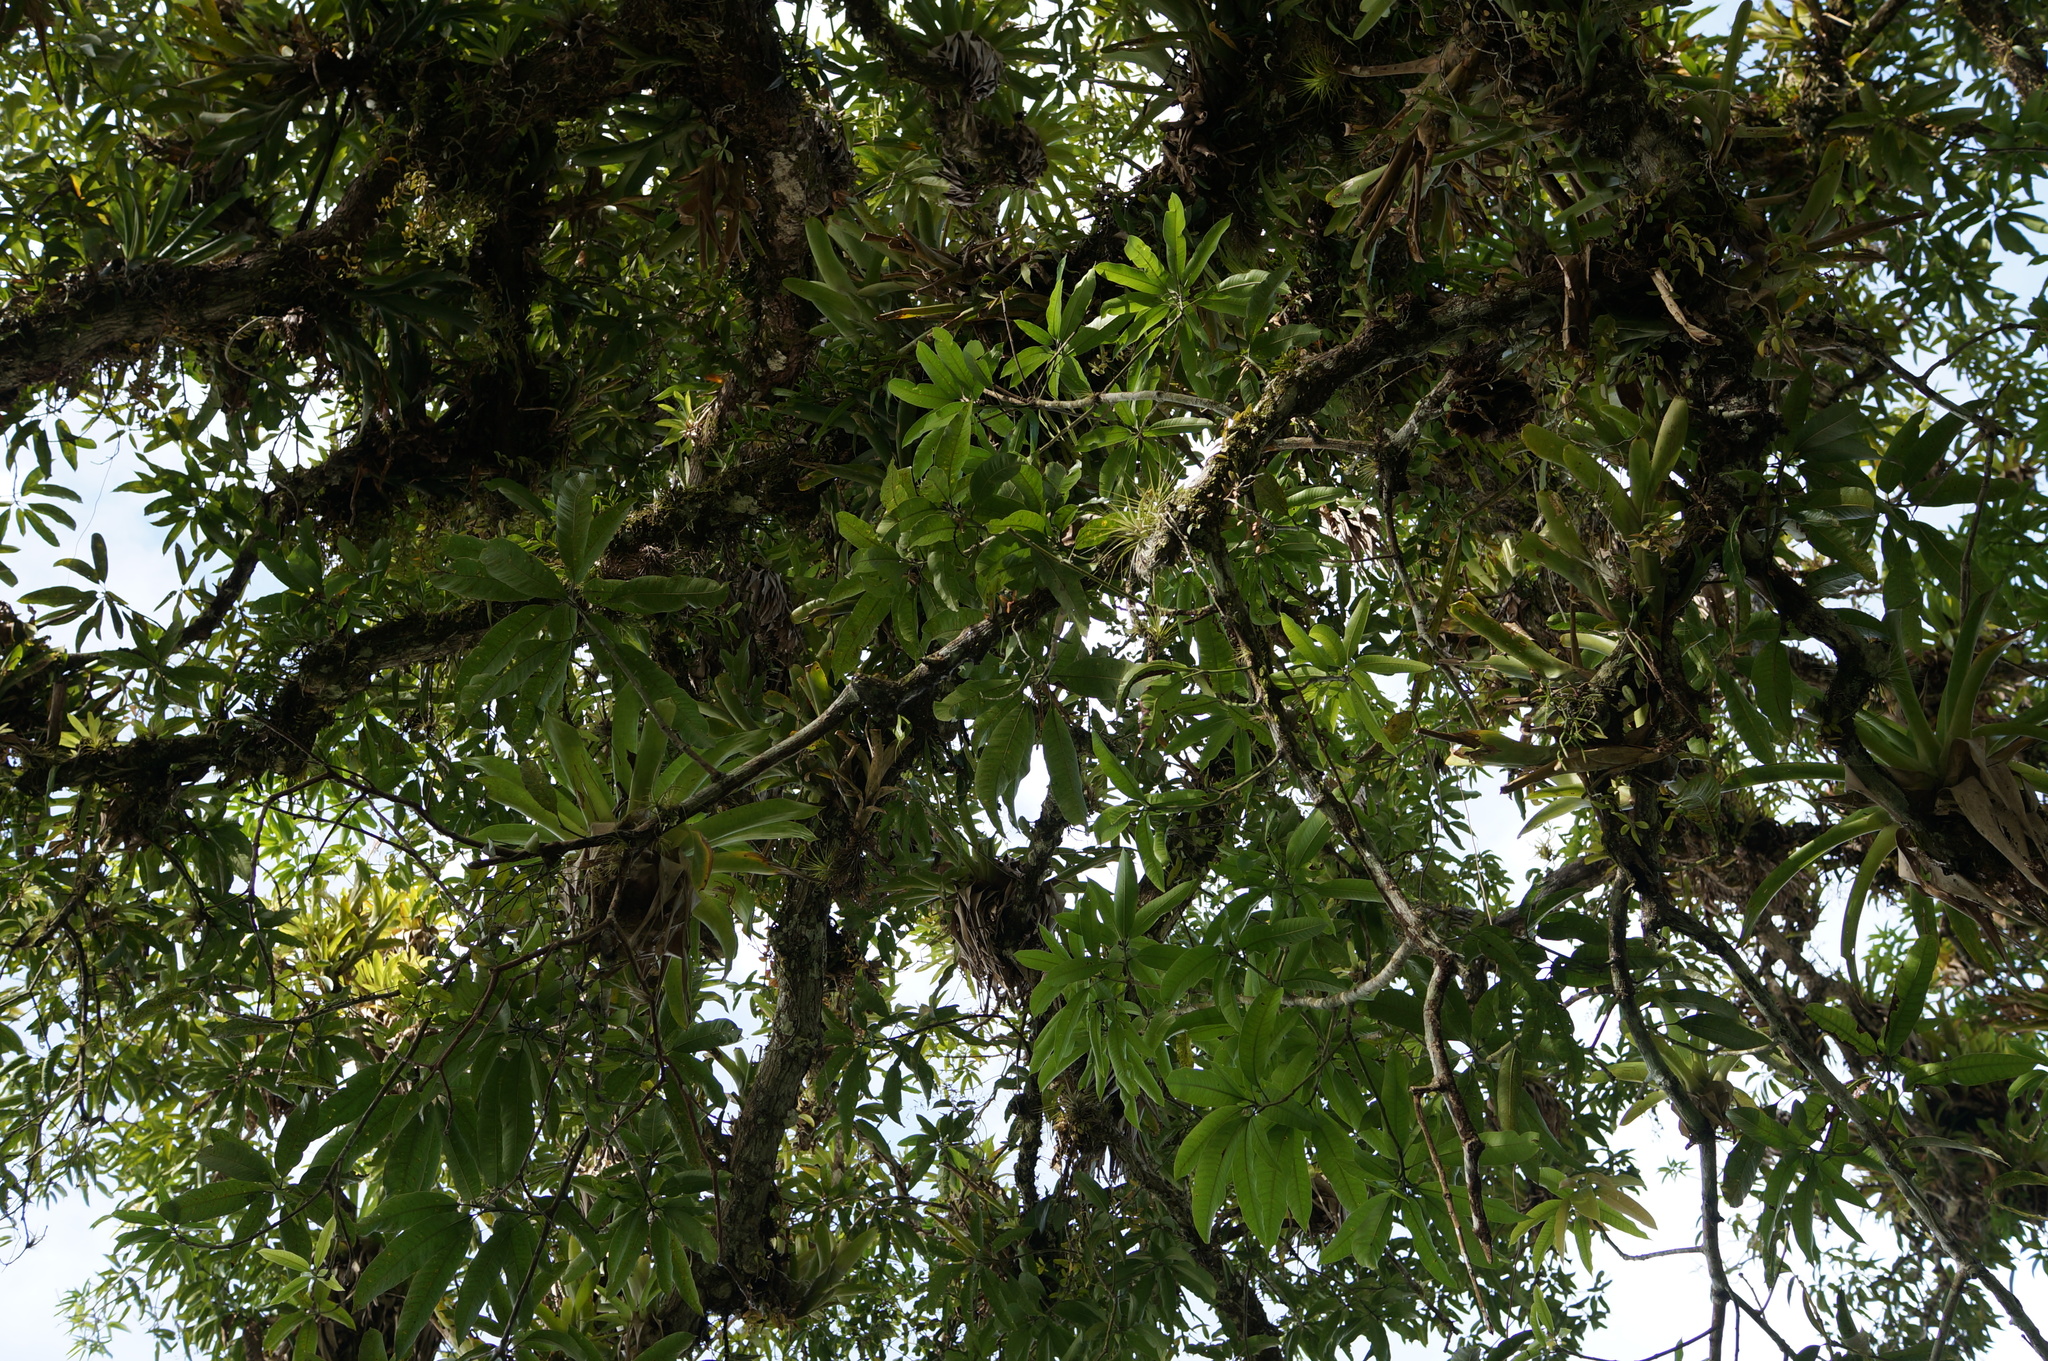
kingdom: Plantae
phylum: Tracheophyta
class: Liliopsida
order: Poales
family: Bromeliaceae
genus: Werauhia
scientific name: Werauhia gigantea
